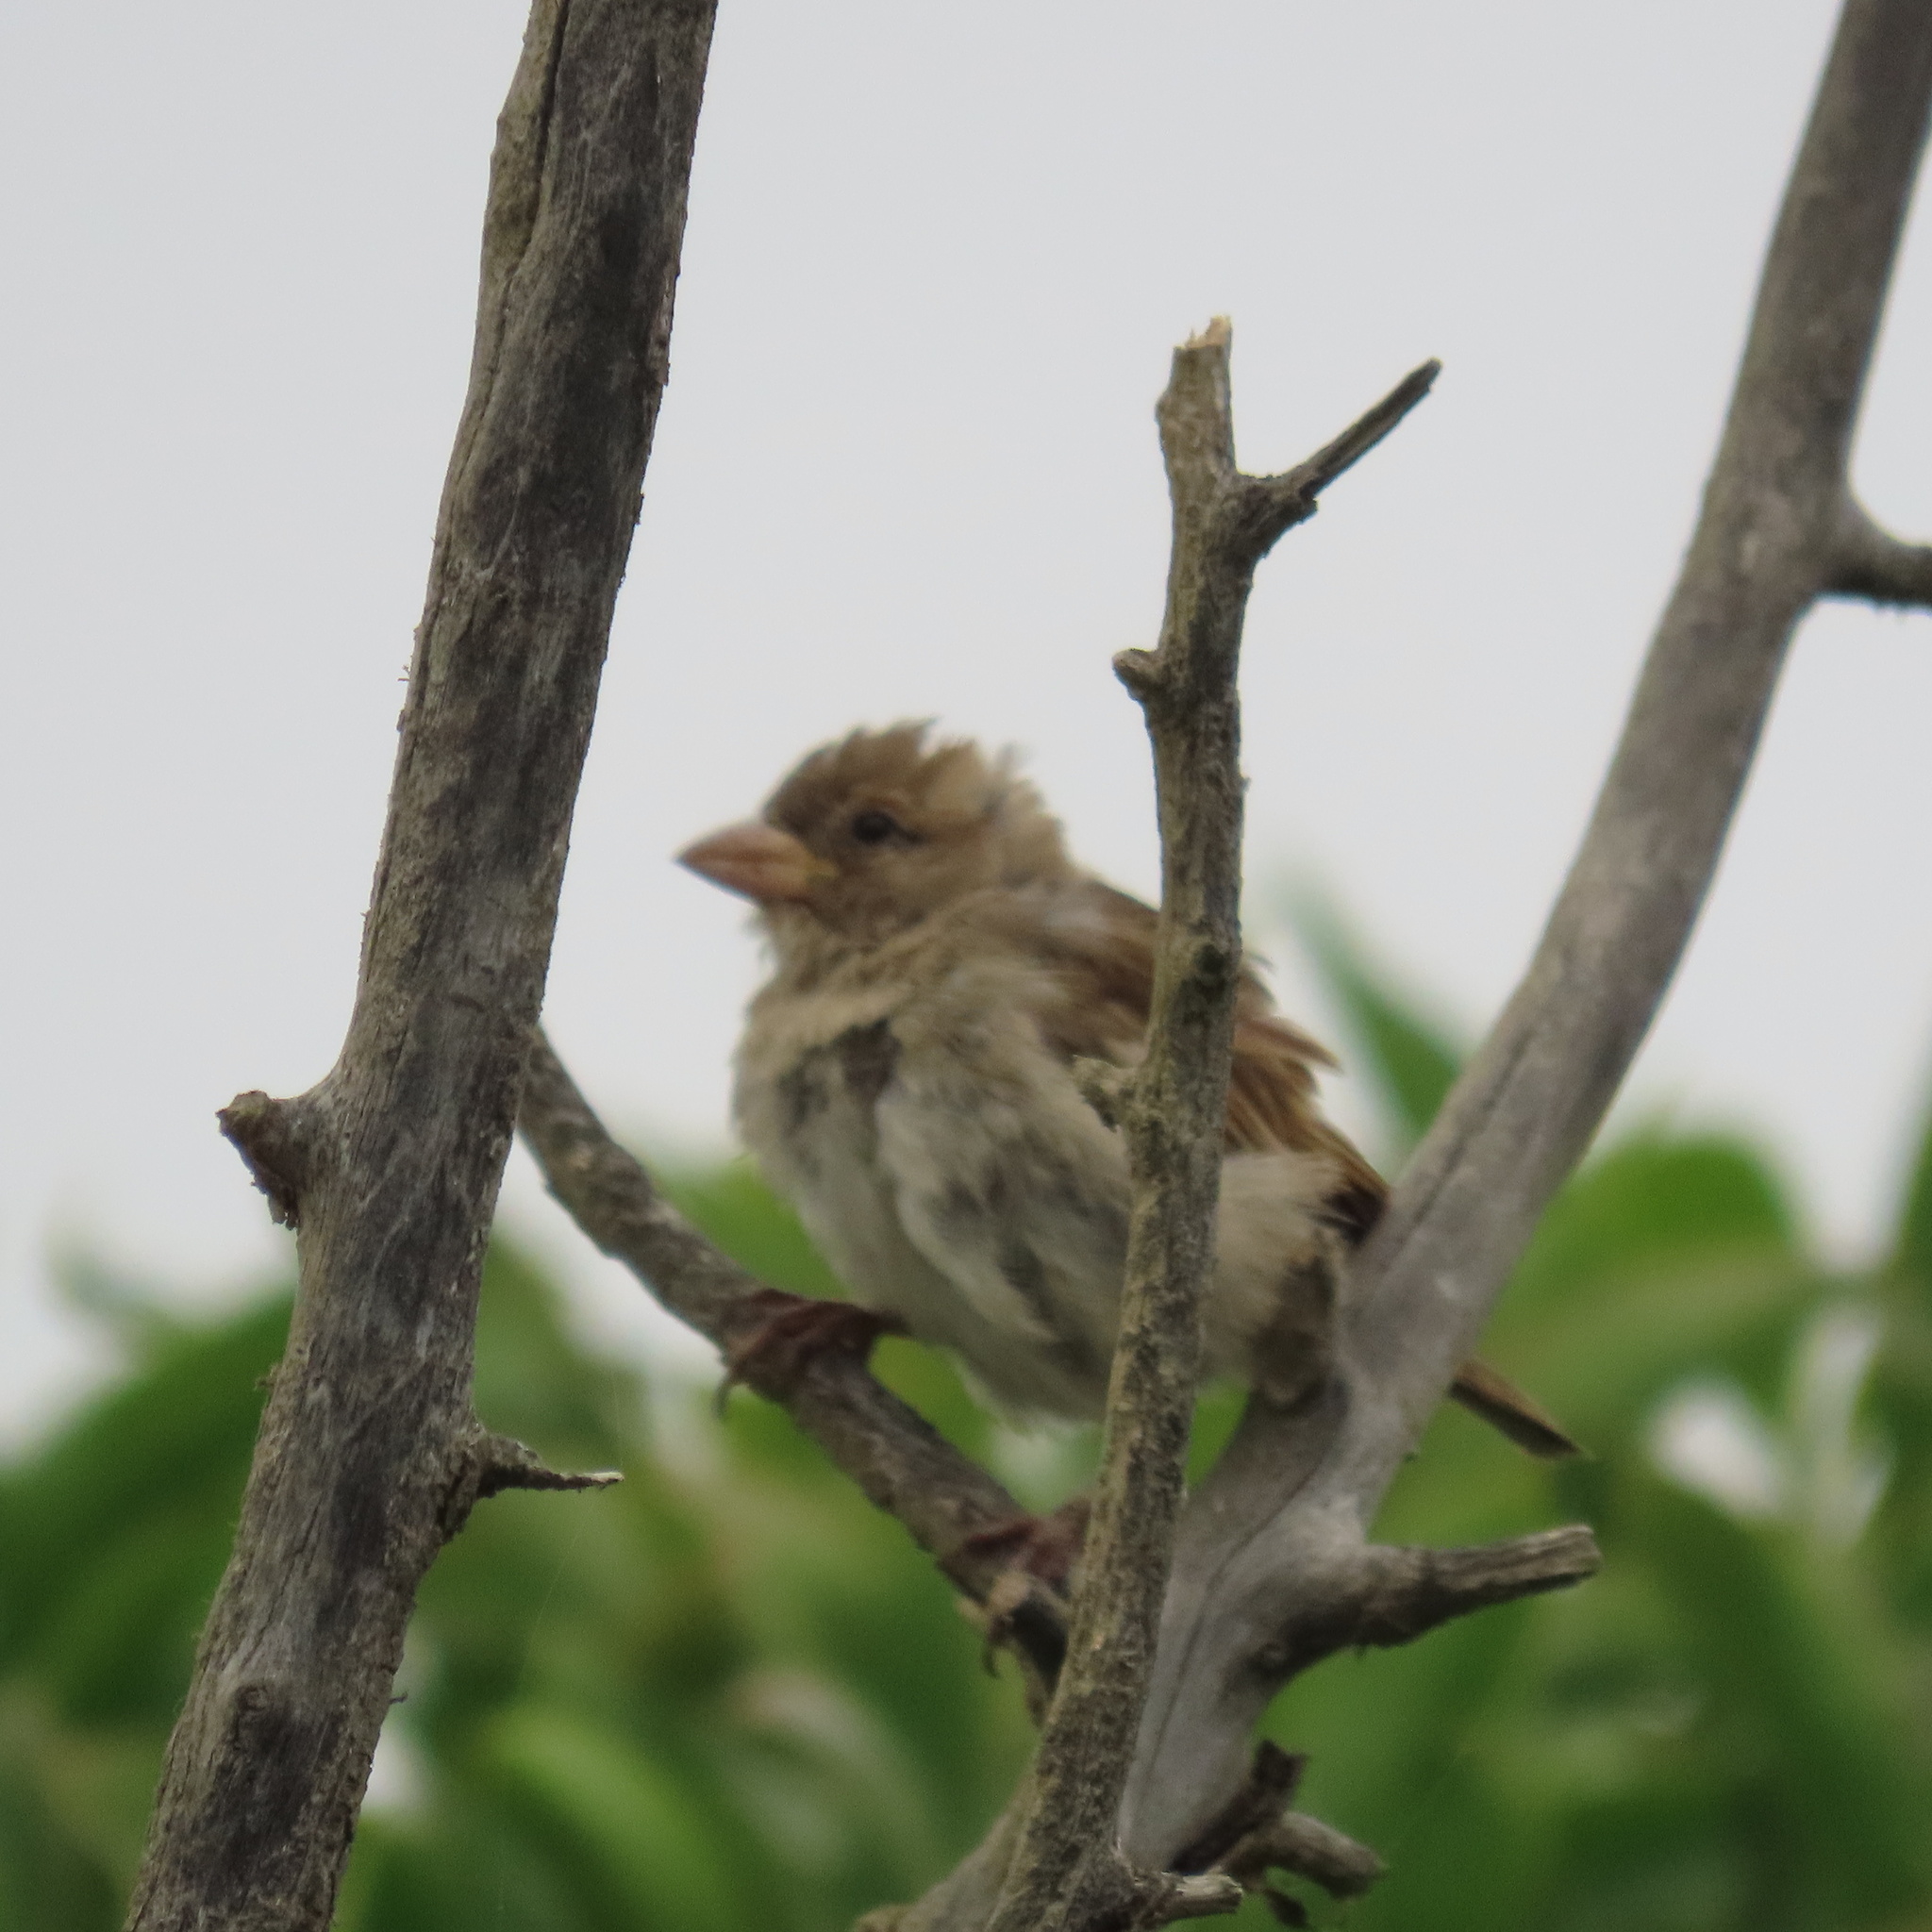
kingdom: Animalia
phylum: Chordata
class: Aves
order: Passeriformes
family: Passeridae
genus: Passer
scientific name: Passer domesticus
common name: House sparrow
